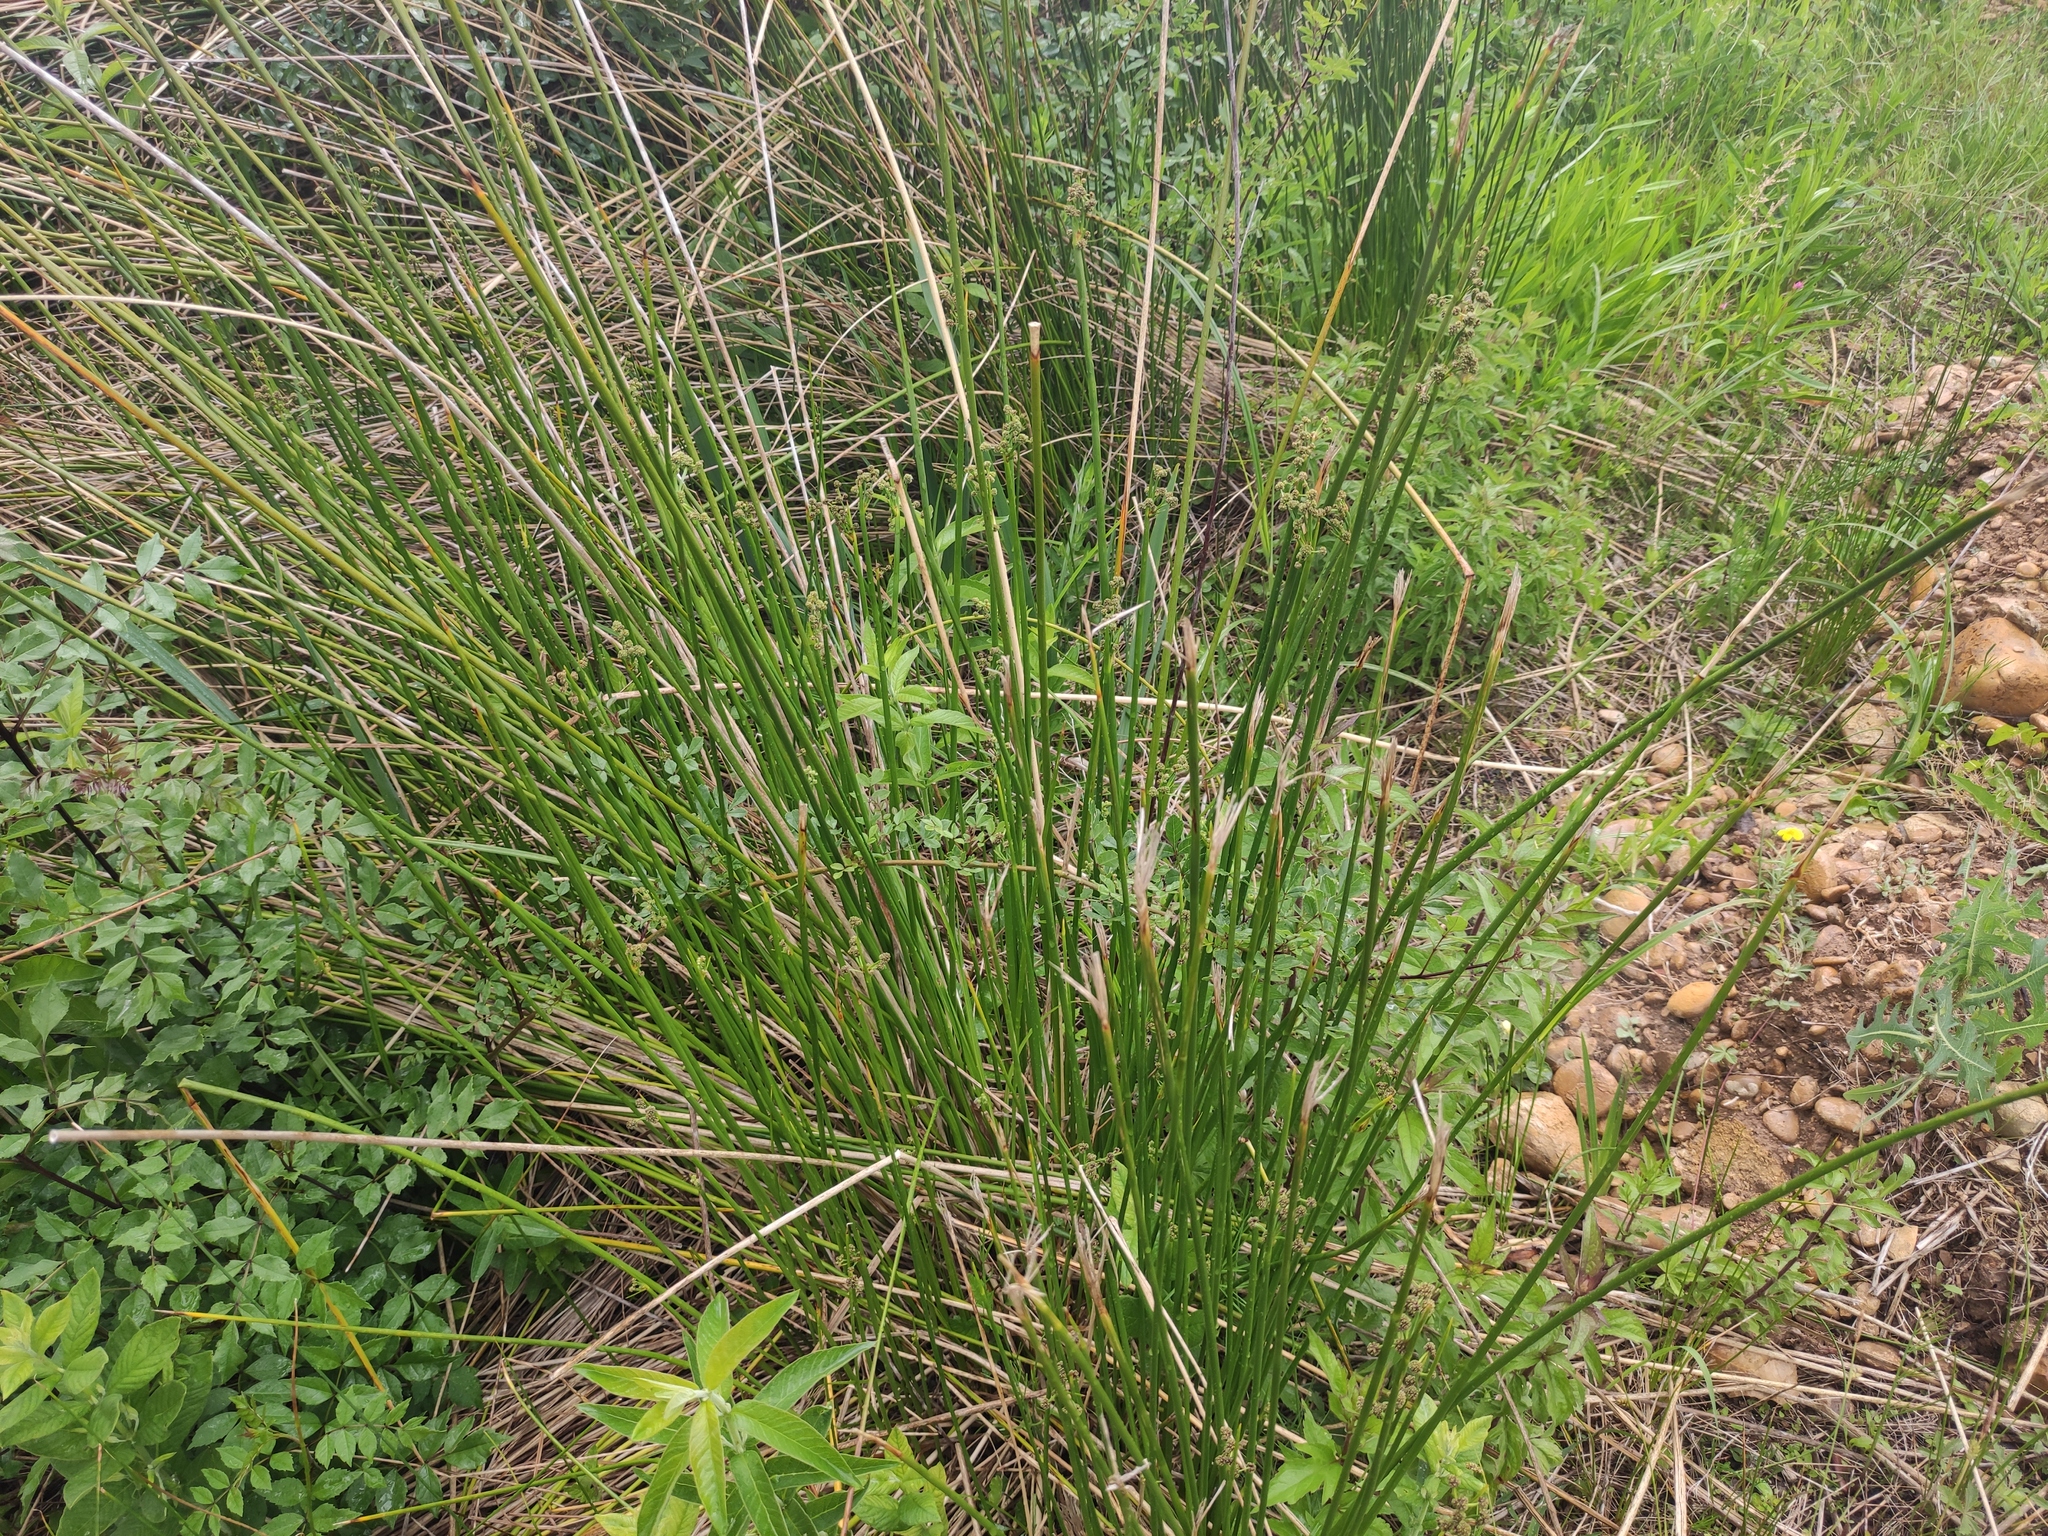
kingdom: Plantae
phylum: Tracheophyta
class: Liliopsida
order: Poales
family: Cyperaceae
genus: Scirpoides
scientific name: Scirpoides holoschoenus
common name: Round-headed club-rush
